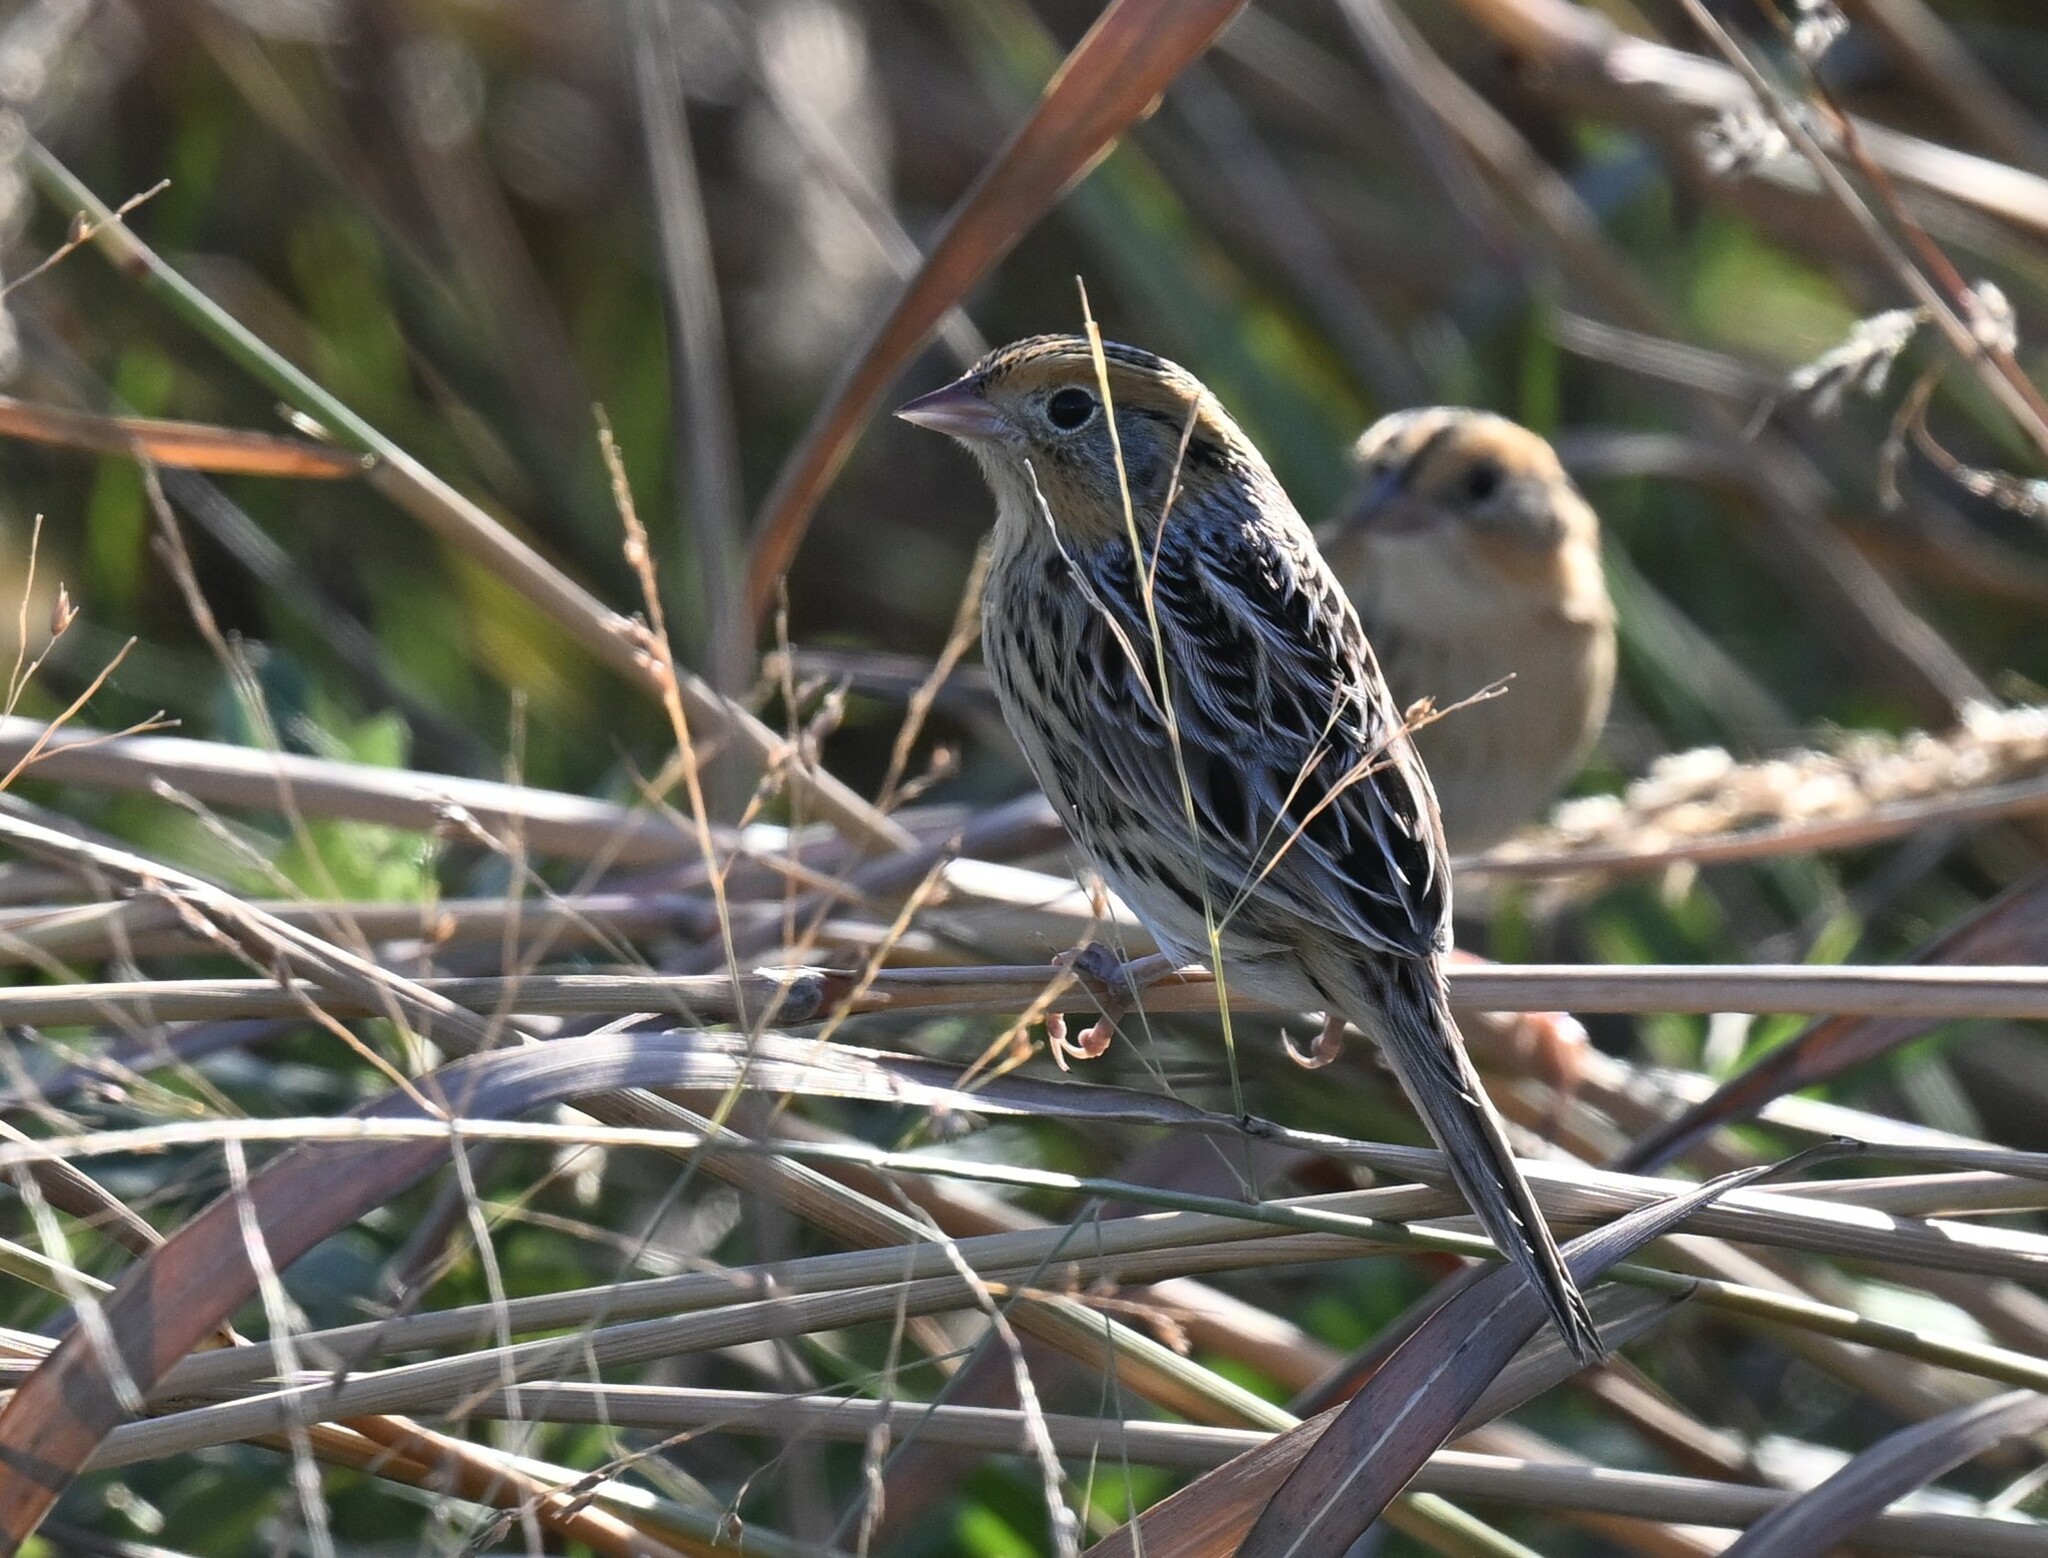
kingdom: Animalia
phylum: Chordata
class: Aves
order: Passeriformes
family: Passerellidae
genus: Ammospiza
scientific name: Ammospiza leconteii
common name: Le conte's sparrow
